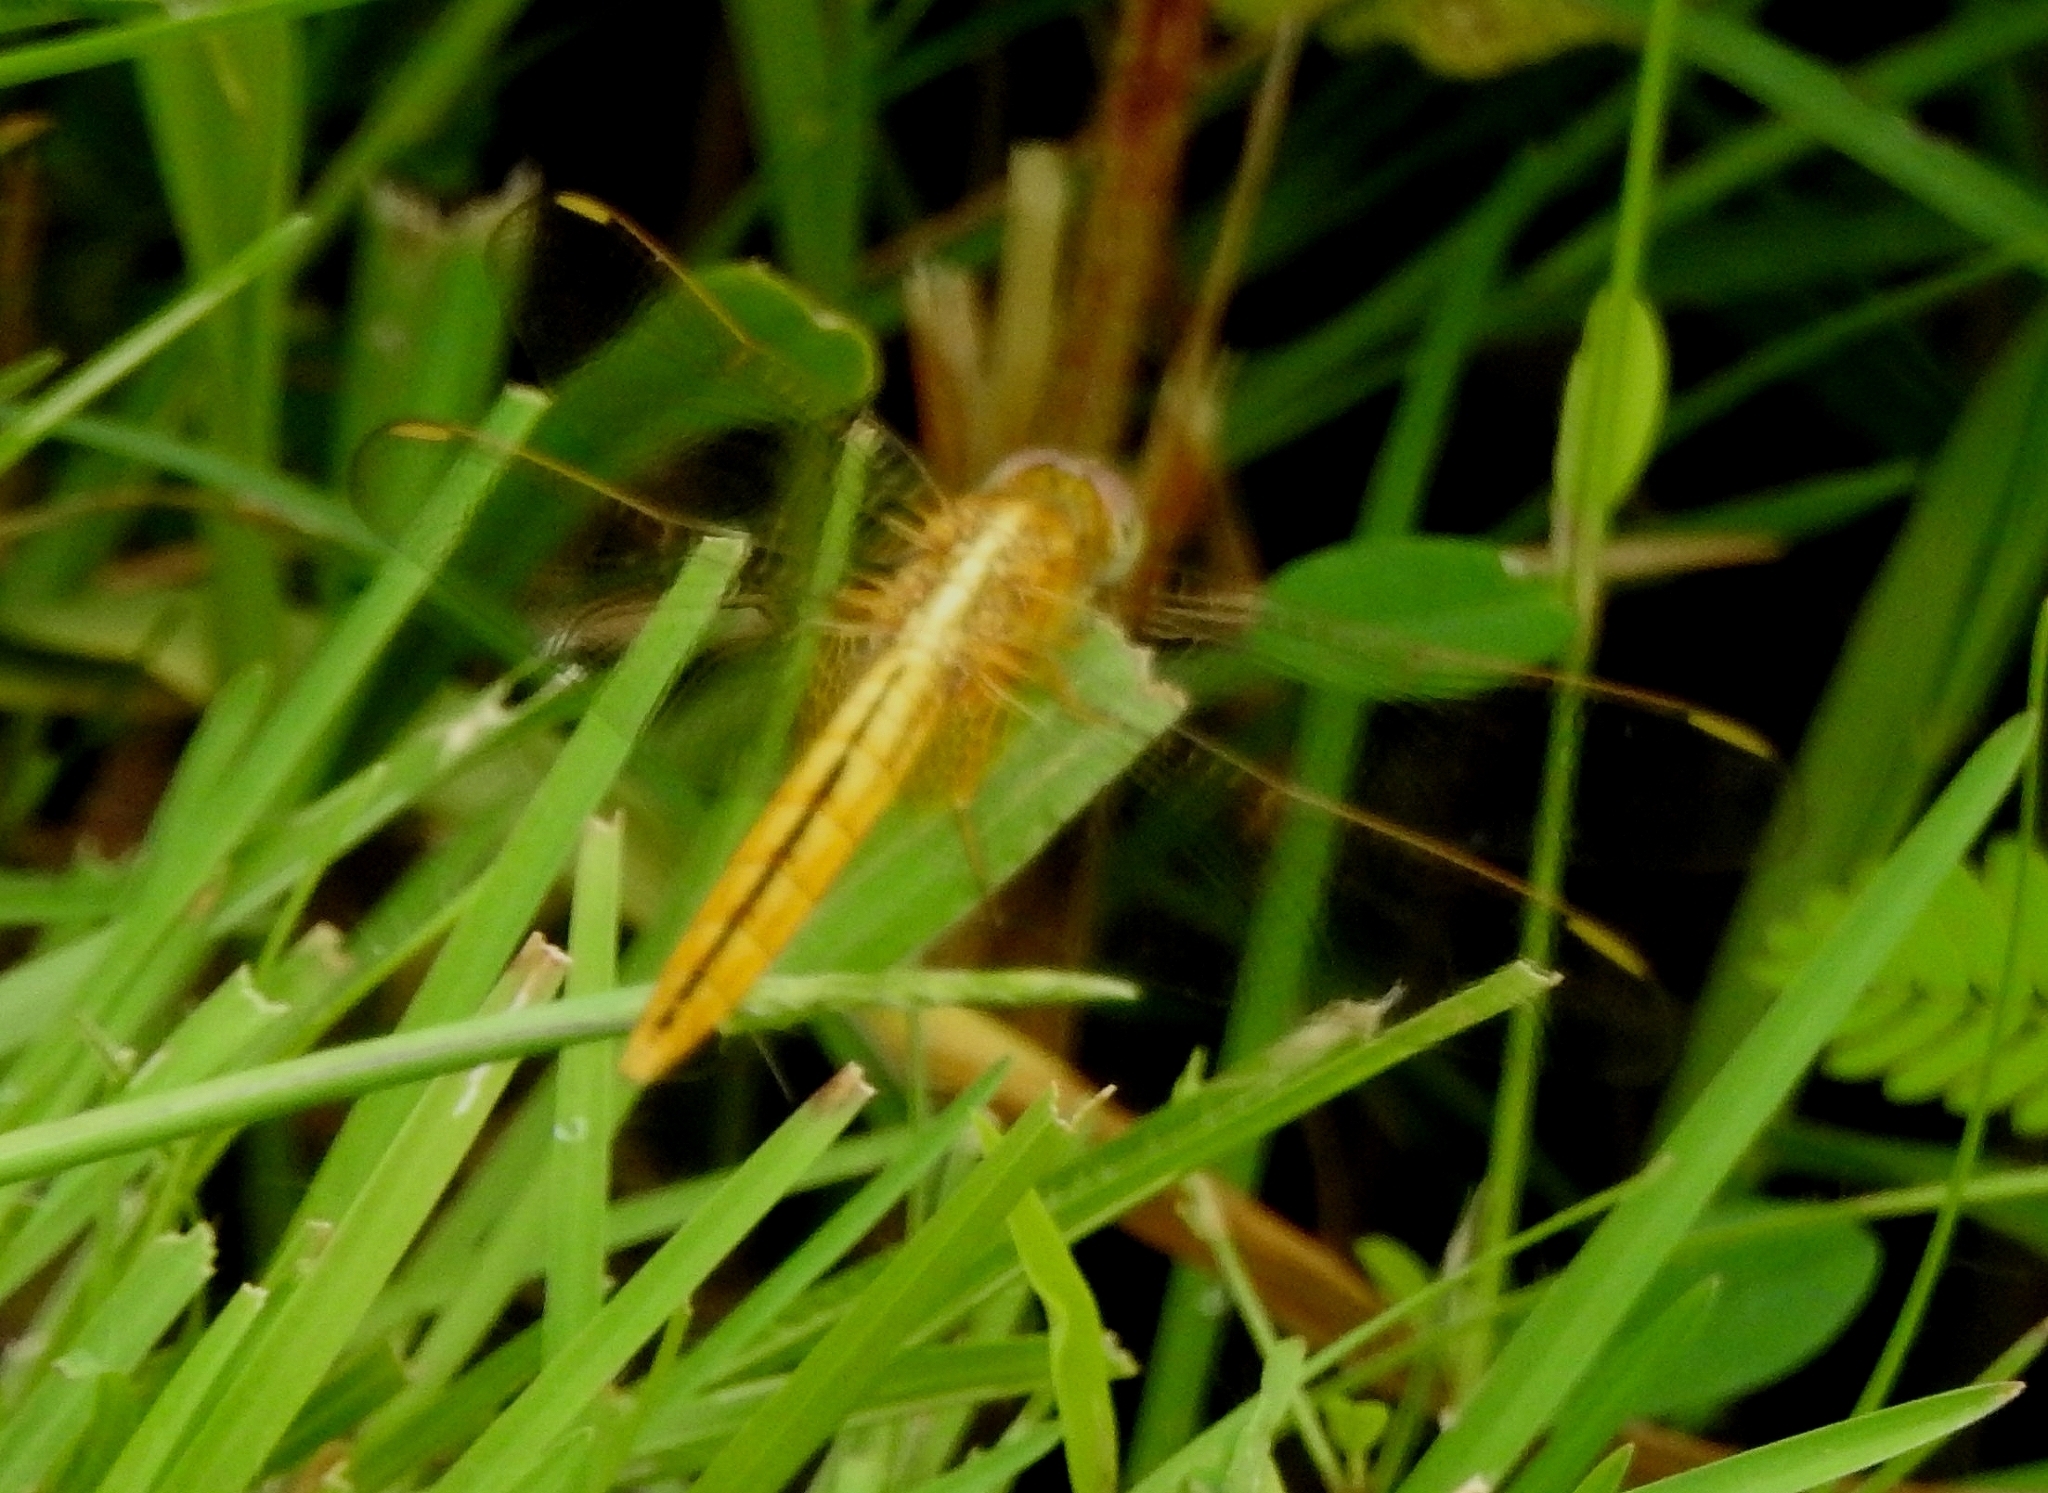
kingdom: Animalia
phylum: Arthropoda
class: Insecta
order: Odonata
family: Libellulidae
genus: Crocothemis
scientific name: Crocothemis servilia
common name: Scarlet skimmer
